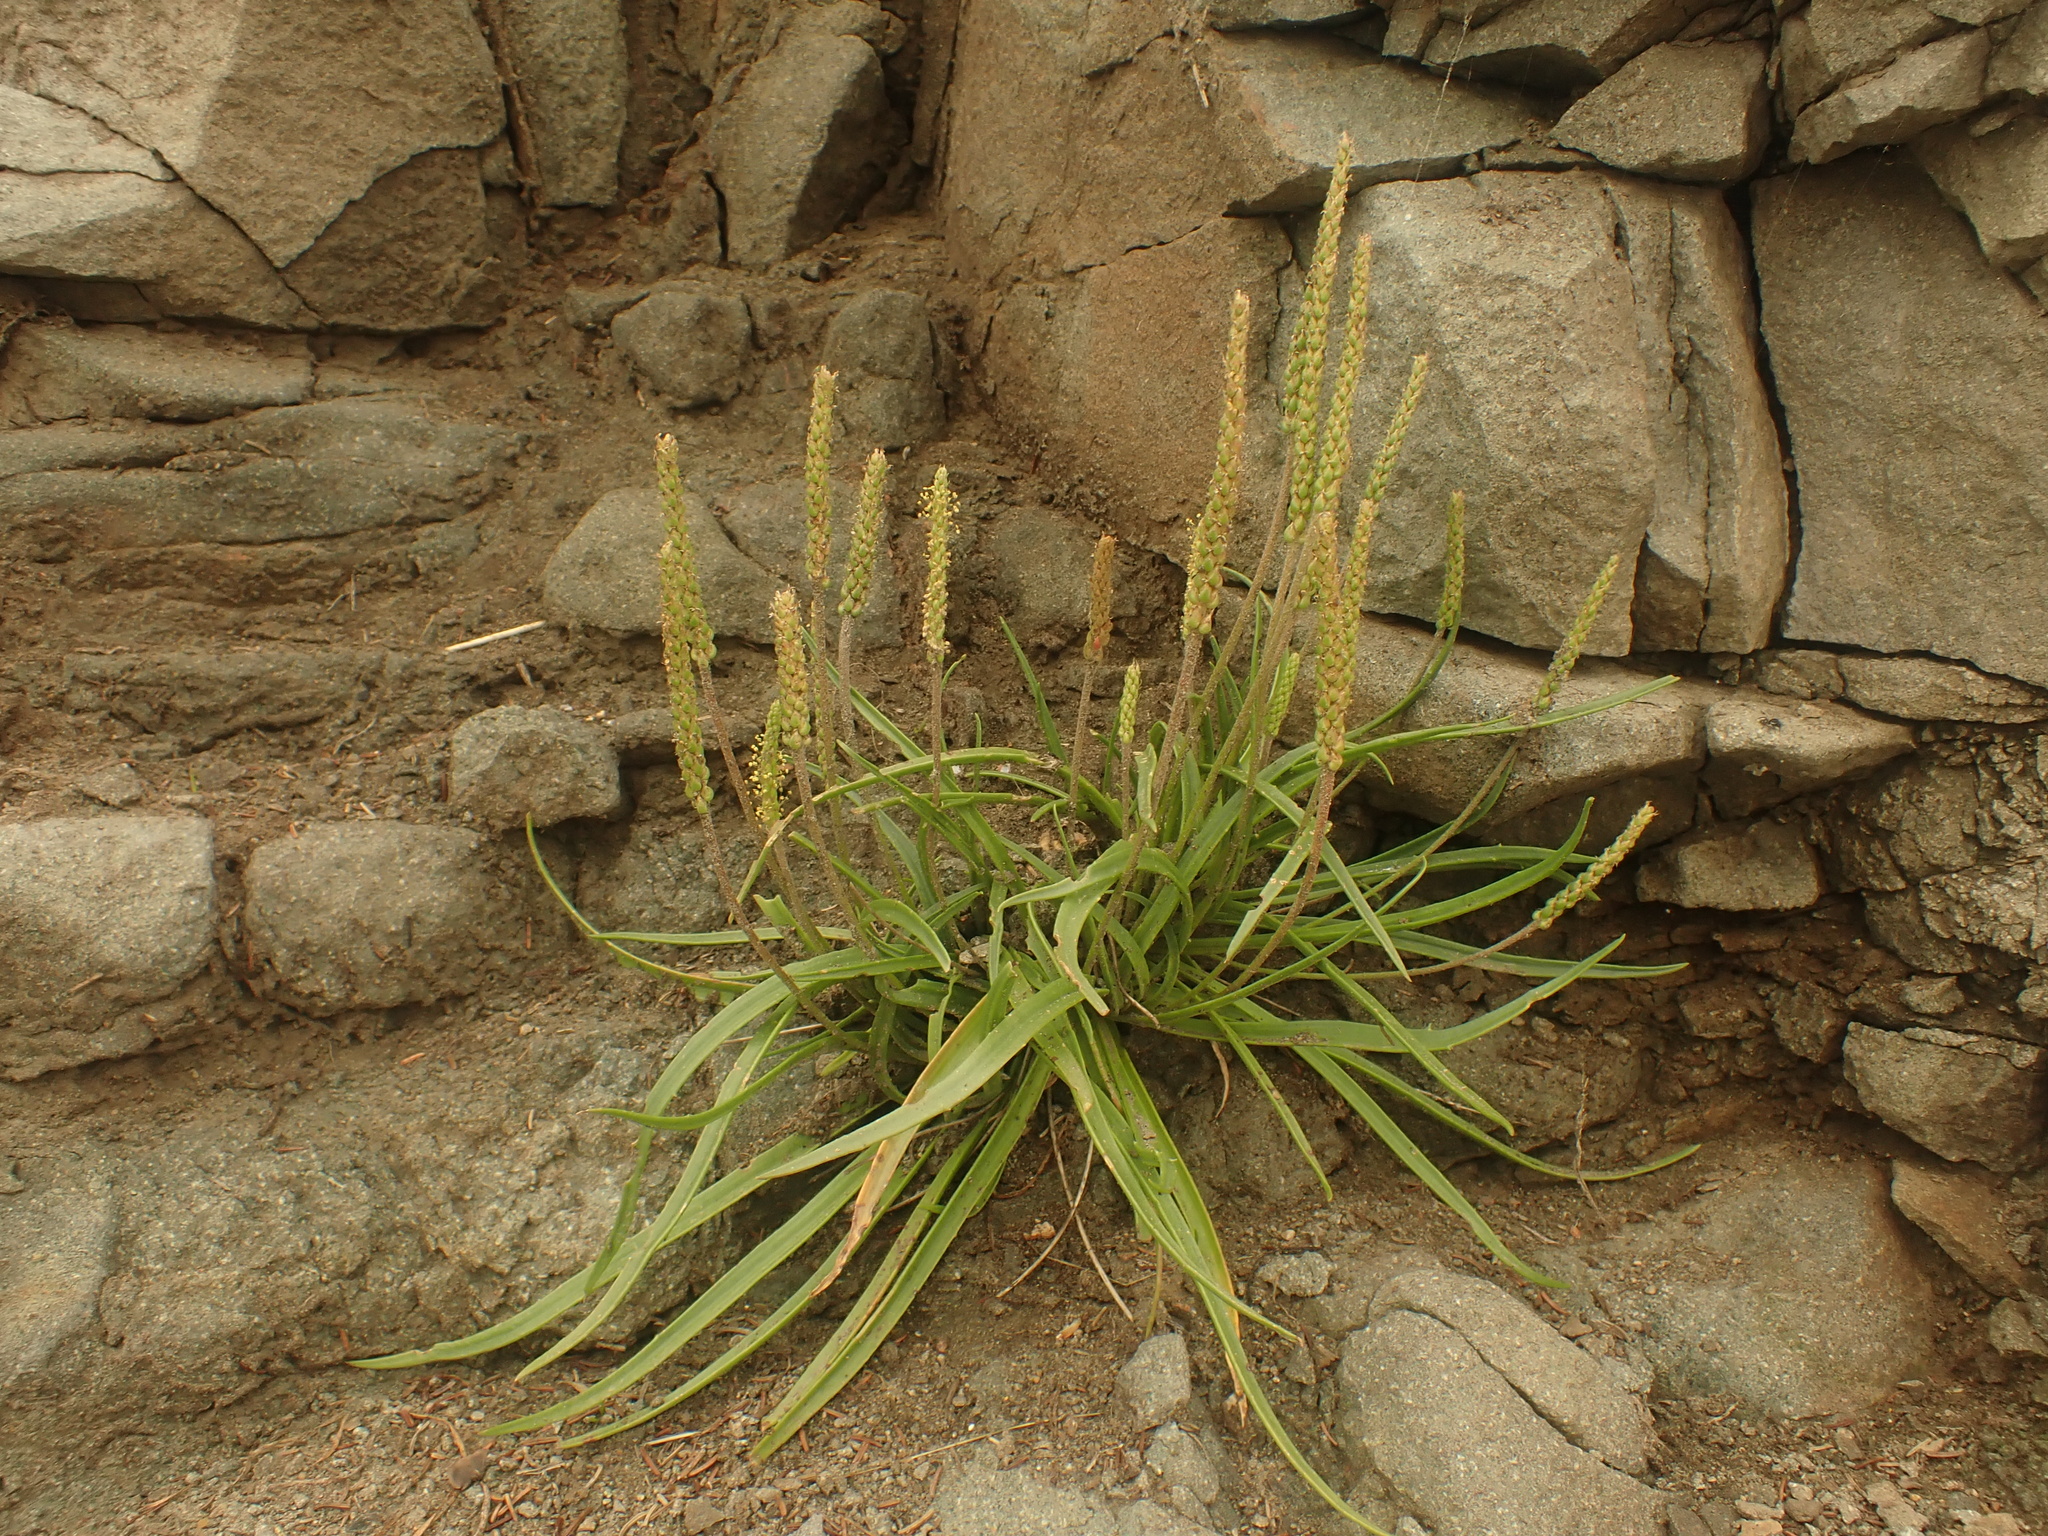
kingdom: Plantae
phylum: Tracheophyta
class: Magnoliopsida
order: Lamiales
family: Plantaginaceae
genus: Plantago
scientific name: Plantago maritima
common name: Sea plantain
